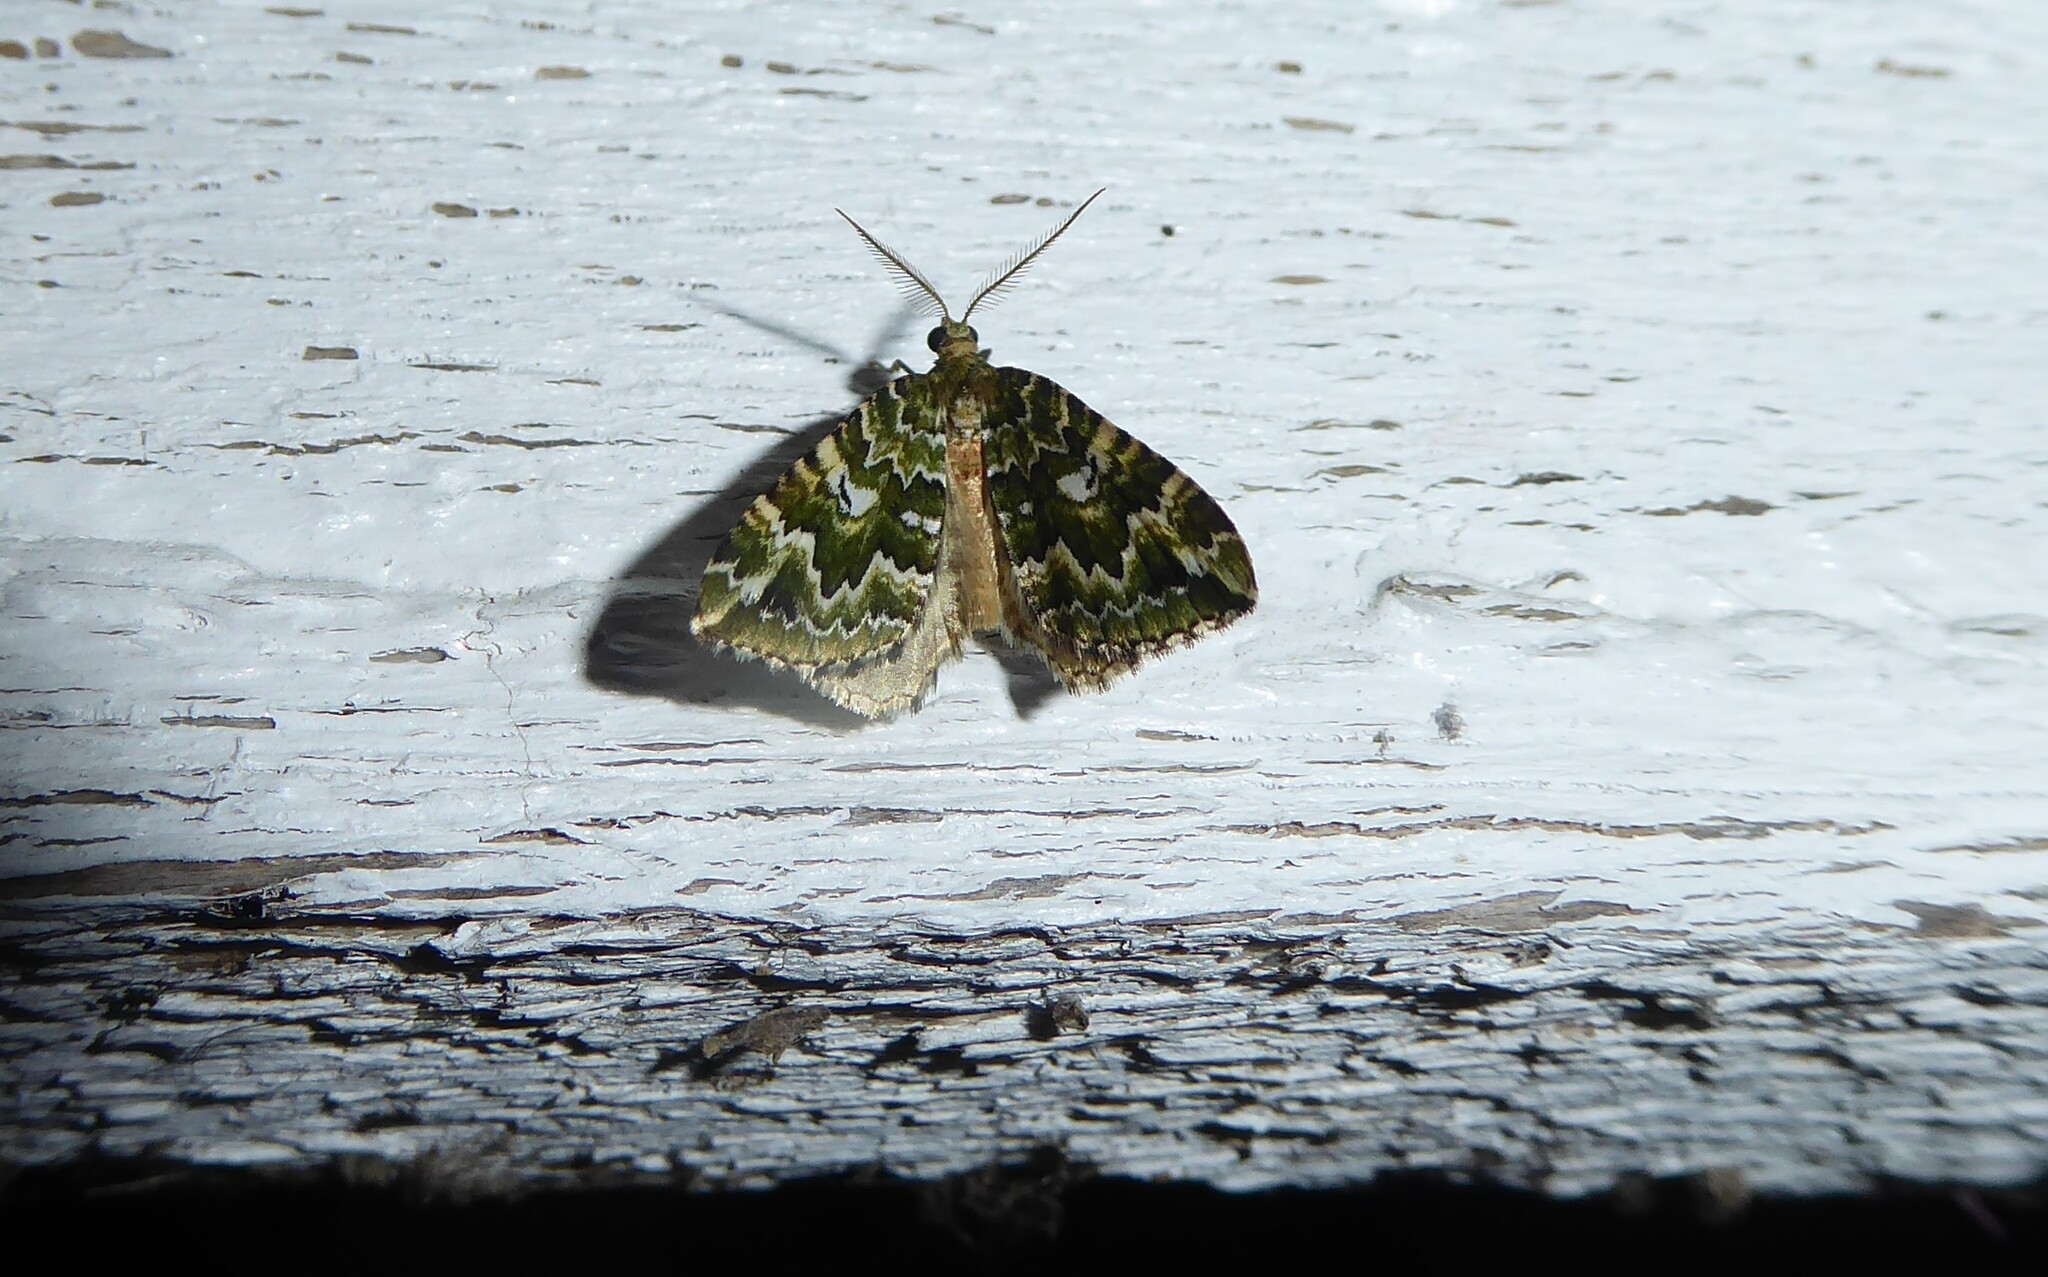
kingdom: Animalia
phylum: Arthropoda
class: Insecta
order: Lepidoptera
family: Geometridae
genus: Asaphodes
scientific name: Asaphodes beata
